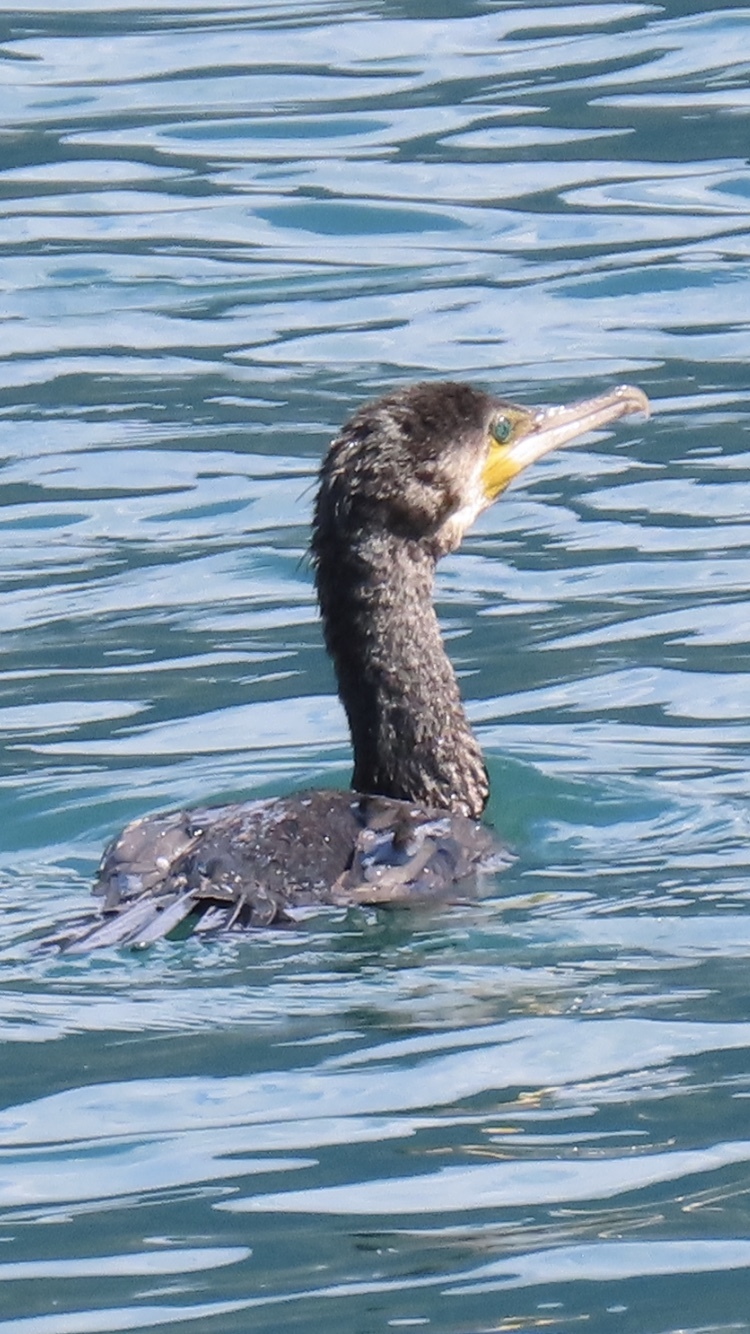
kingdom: Animalia
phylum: Chordata
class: Aves
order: Suliformes
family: Phalacrocoracidae
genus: Phalacrocorax
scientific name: Phalacrocorax carbo
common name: Great cormorant
